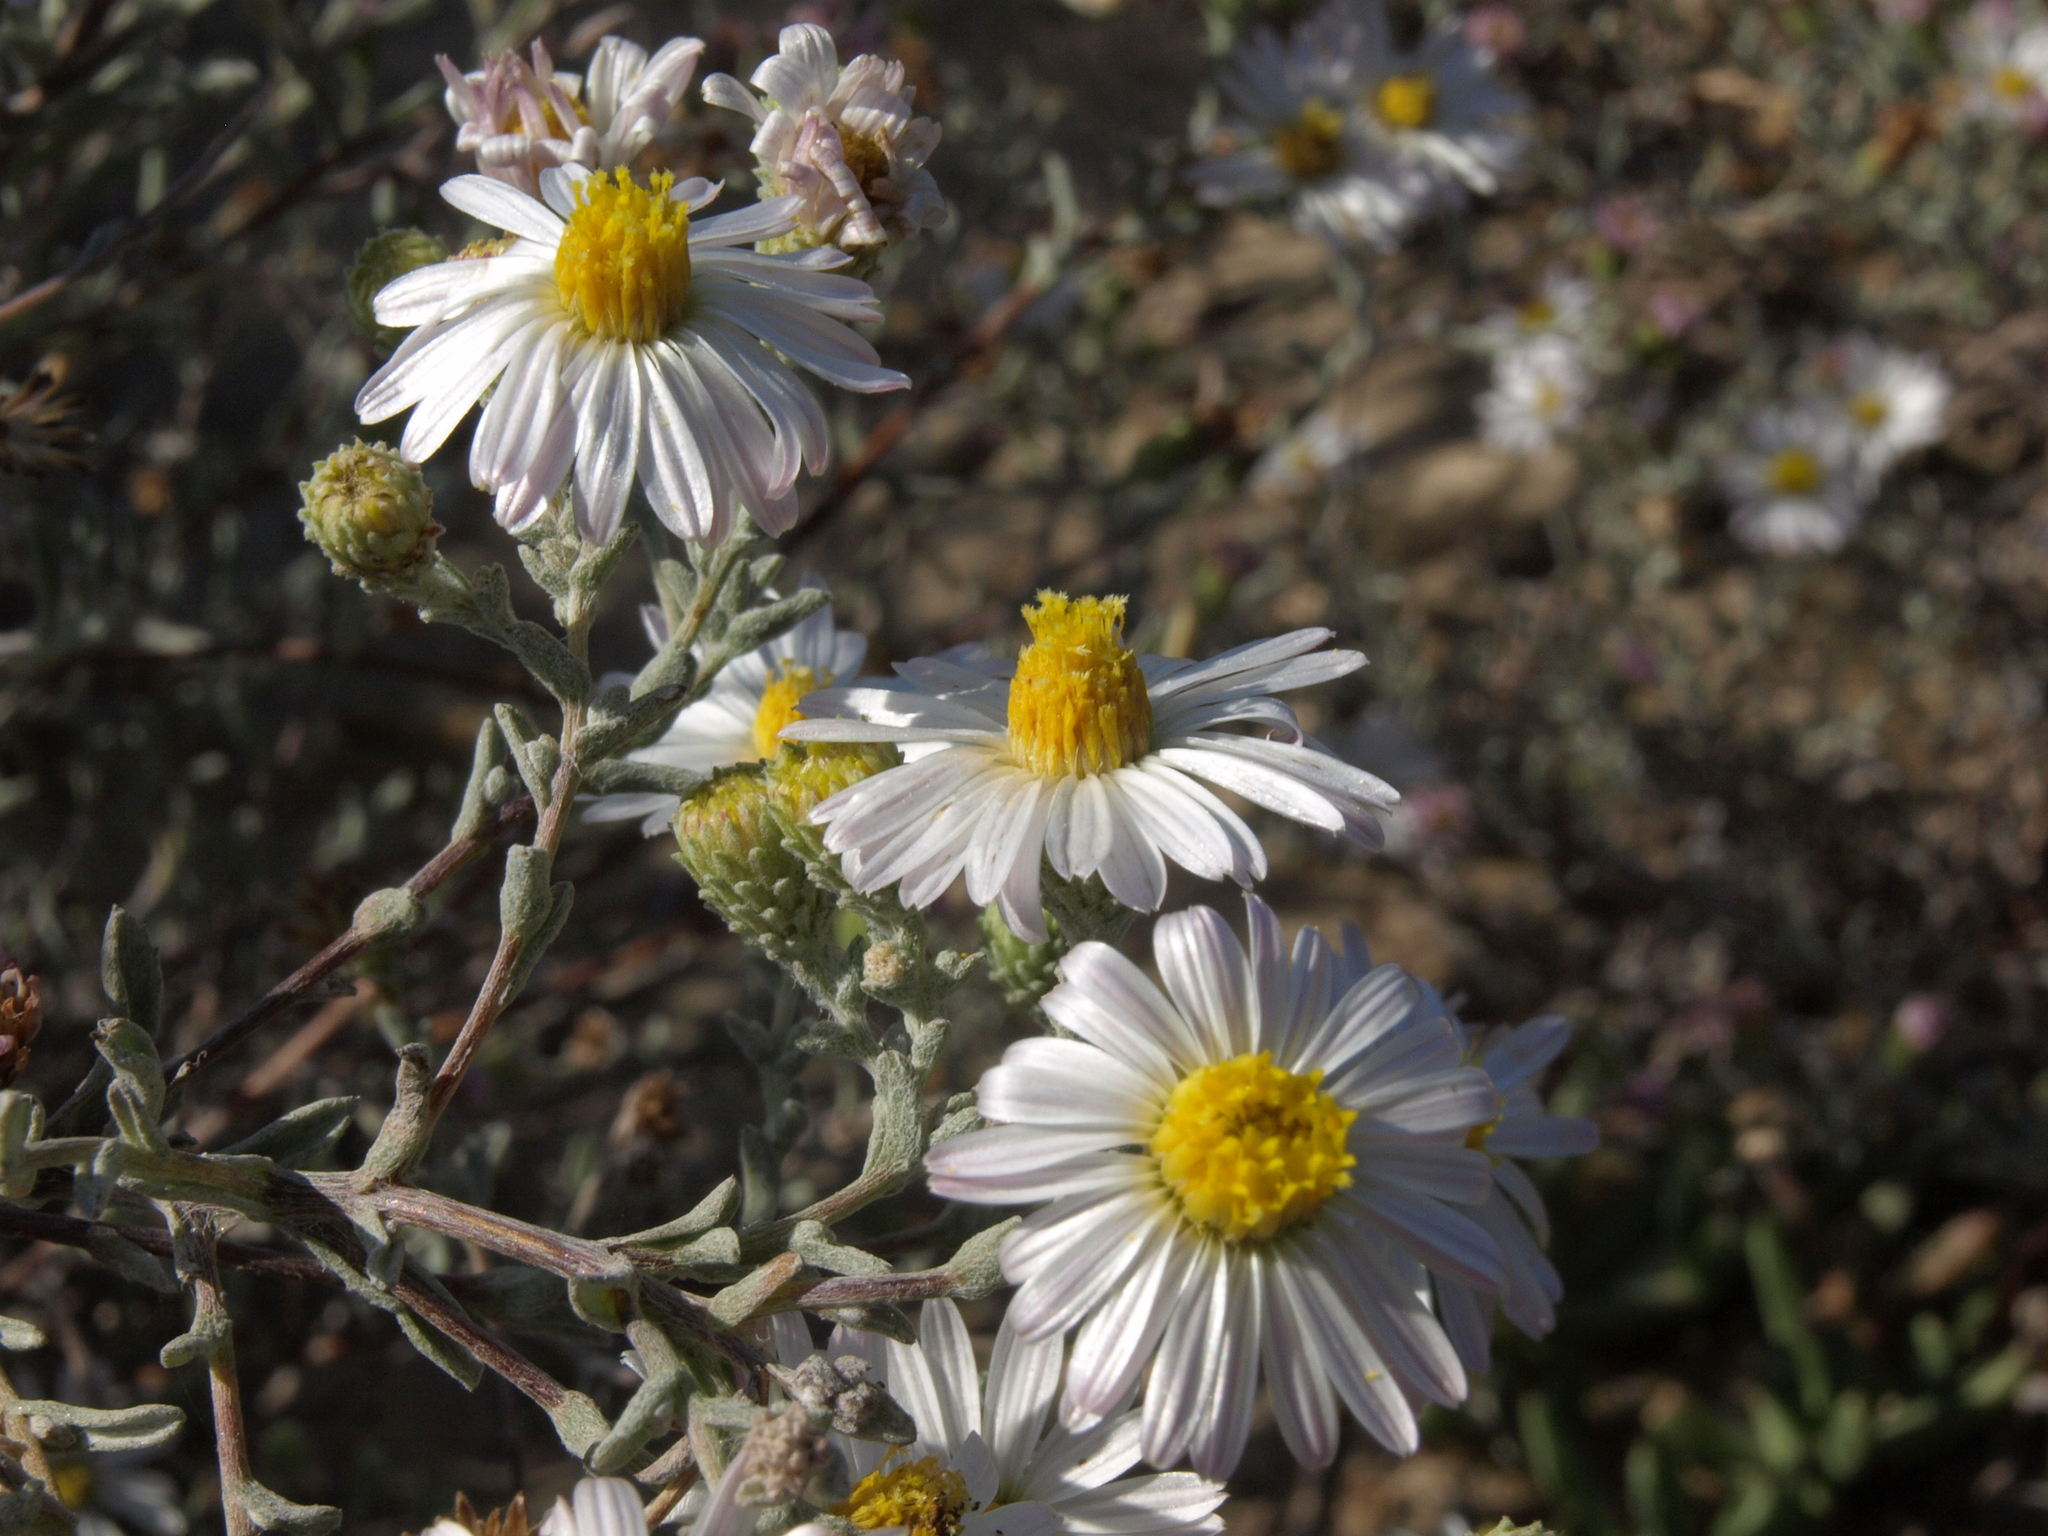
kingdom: Plantae
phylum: Tracheophyta
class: Magnoliopsida
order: Asterales
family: Asteraceae
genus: Corethrogyne
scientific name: Corethrogyne filaginifolia
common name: Sand-aster
